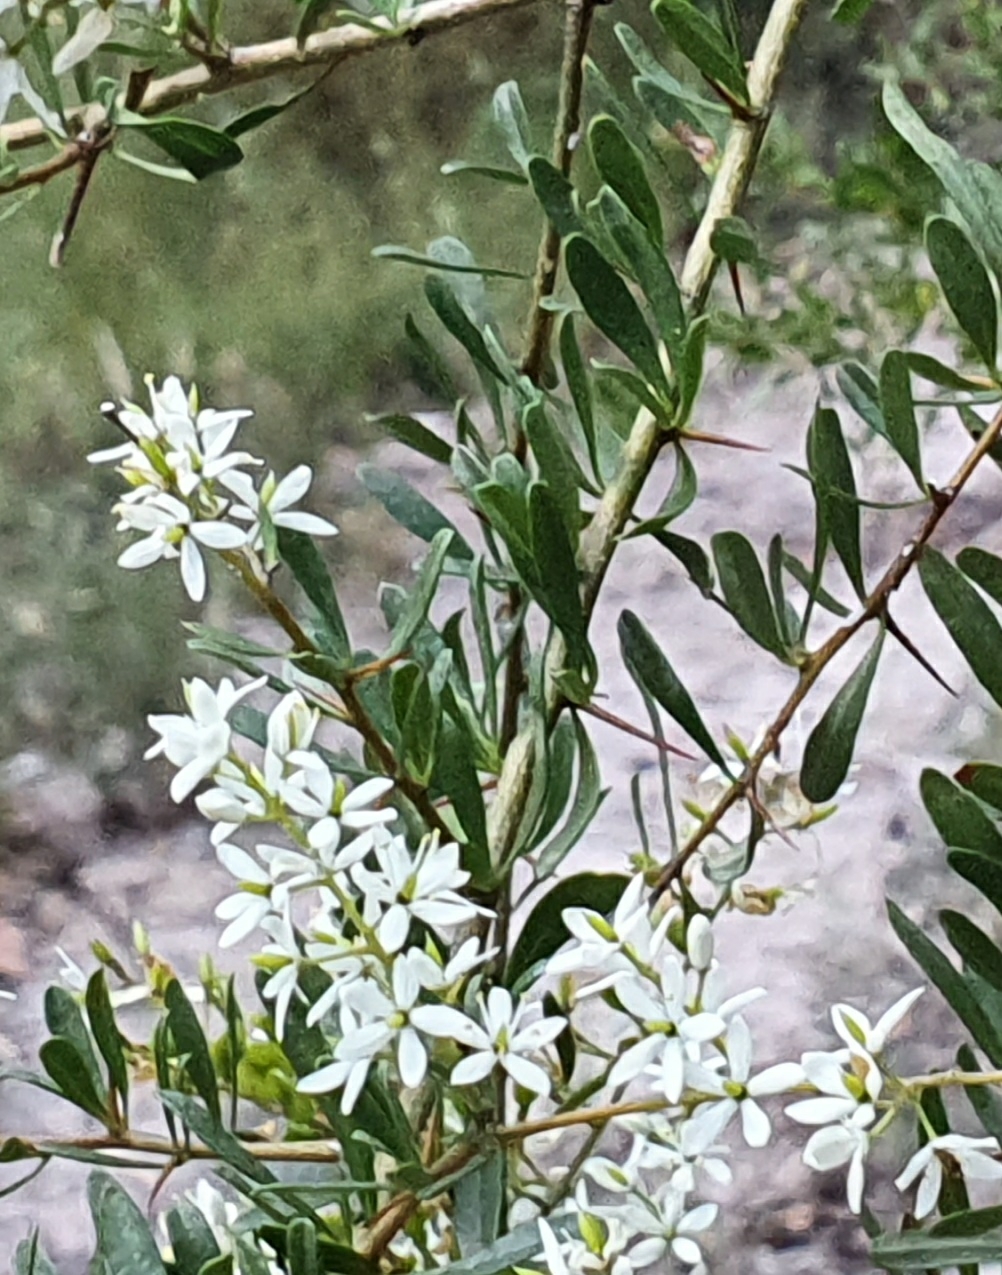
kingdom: Plantae
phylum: Tracheophyta
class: Magnoliopsida
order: Apiales
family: Pittosporaceae
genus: Bursaria
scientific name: Bursaria spinosa
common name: Australian blackthorn
